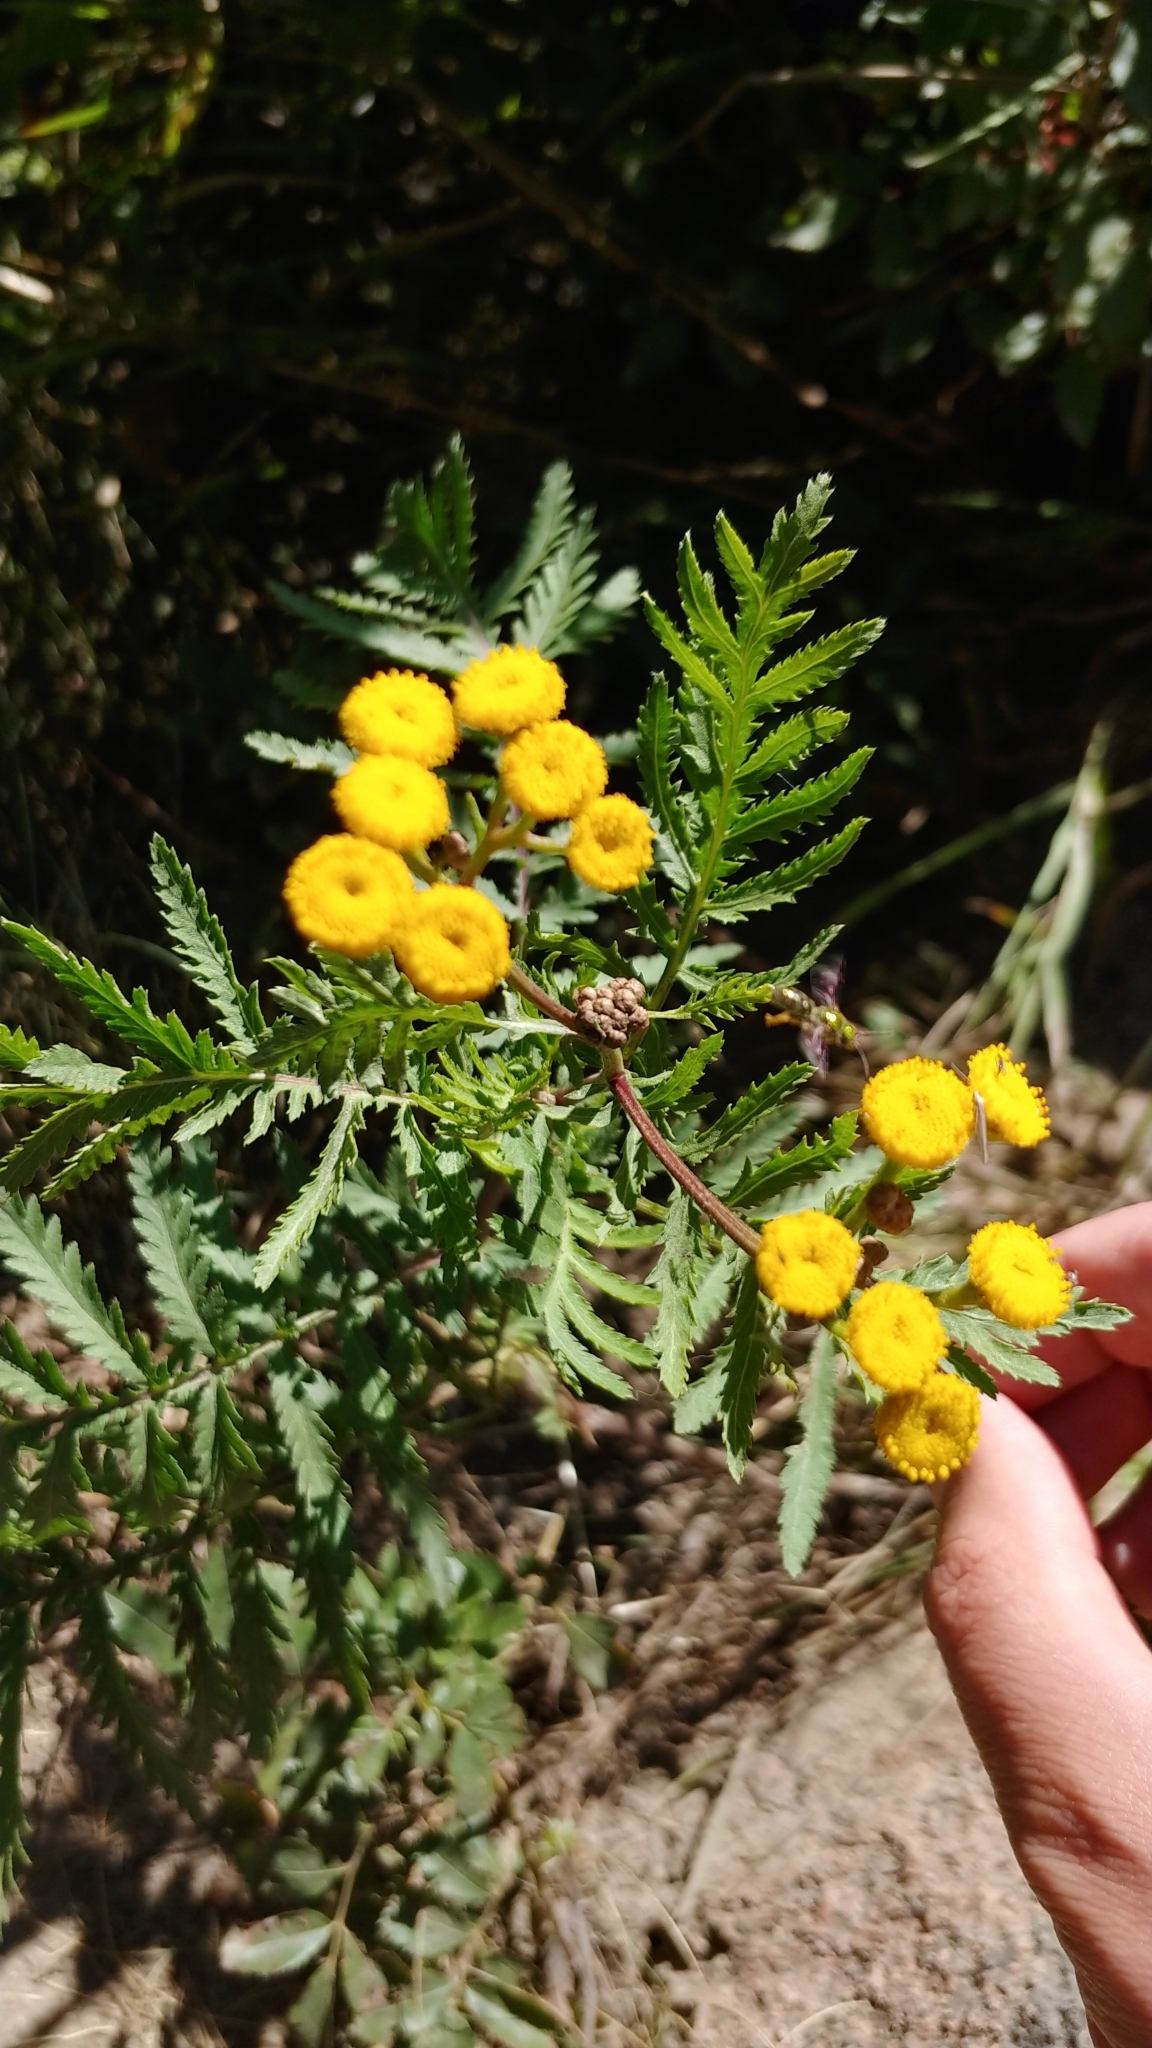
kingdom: Plantae
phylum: Tracheophyta
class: Magnoliopsida
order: Asterales
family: Asteraceae
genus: Tanacetum
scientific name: Tanacetum vulgare
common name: Common tansy
